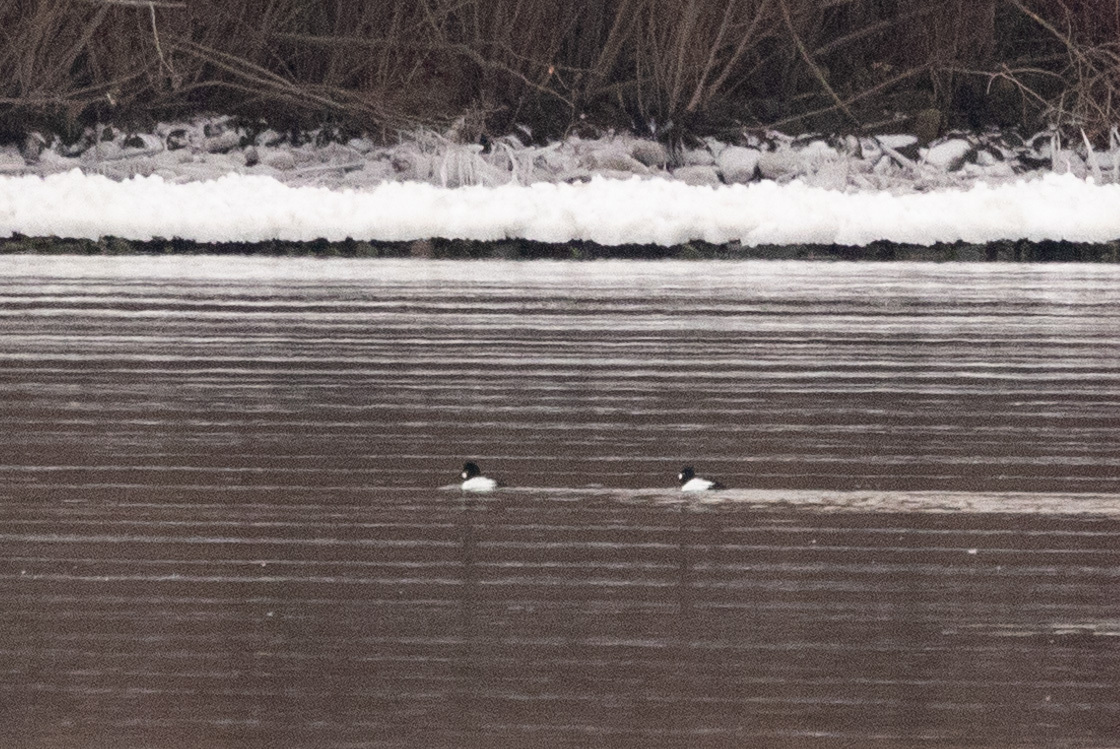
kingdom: Animalia
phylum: Chordata
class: Aves
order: Anseriformes
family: Anatidae
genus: Bucephala
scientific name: Bucephala clangula
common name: Common goldeneye
